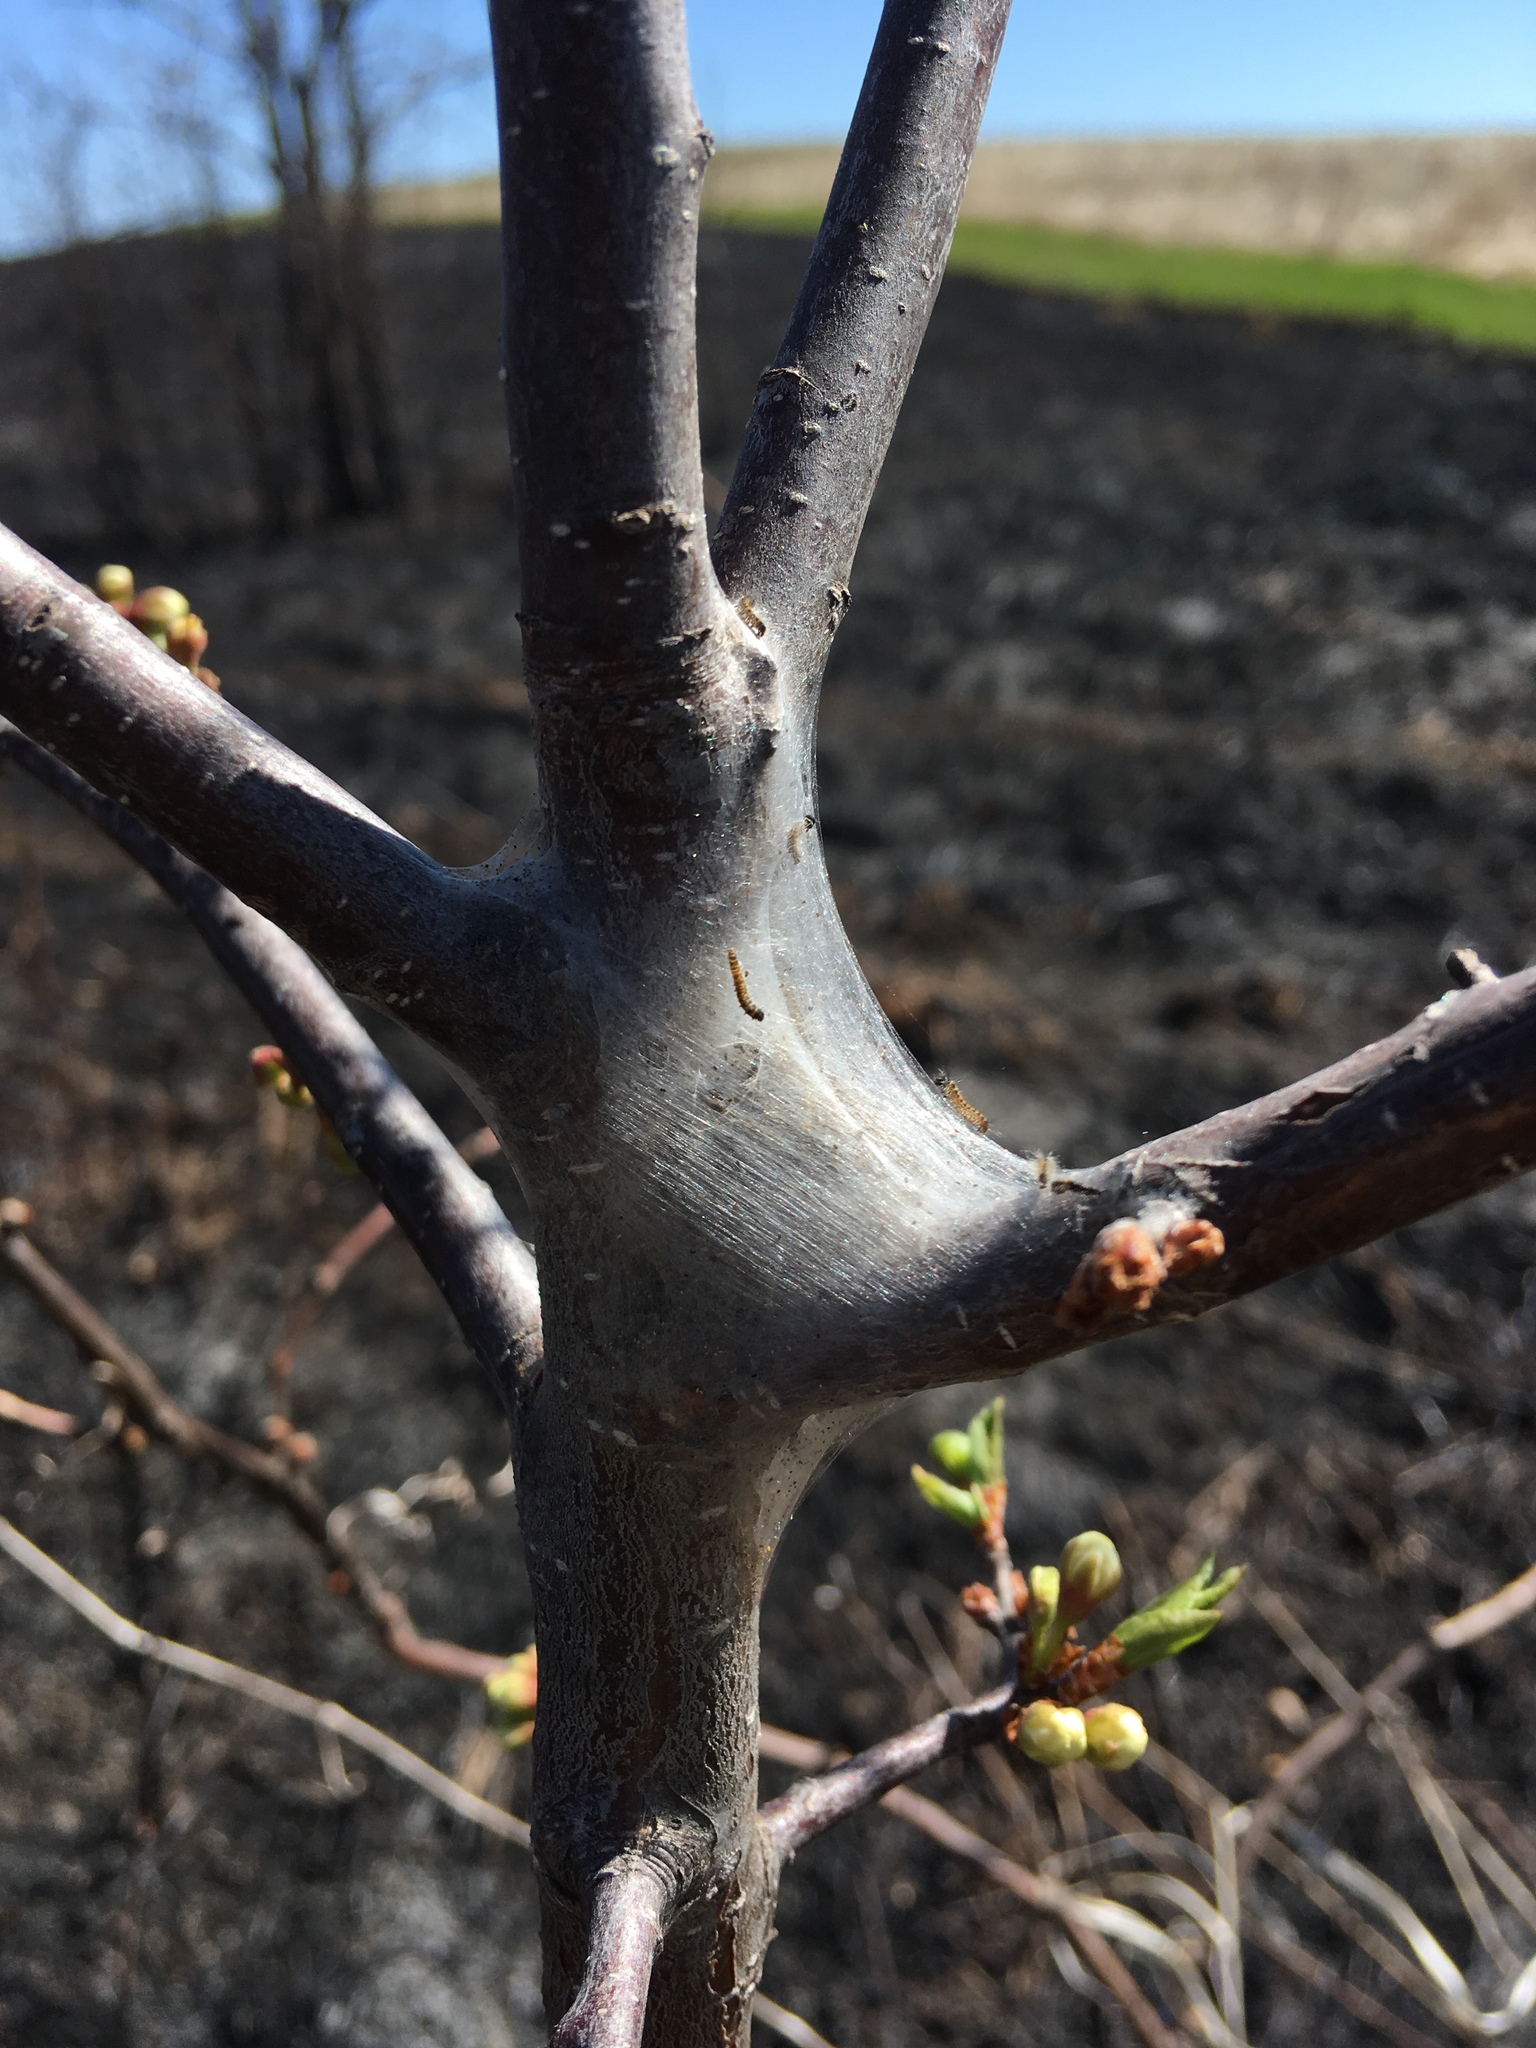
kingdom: Animalia
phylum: Arthropoda
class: Insecta
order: Lepidoptera
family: Lasiocampidae
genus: Malacosoma
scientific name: Malacosoma americana
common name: Eastern tent caterpillar moth
